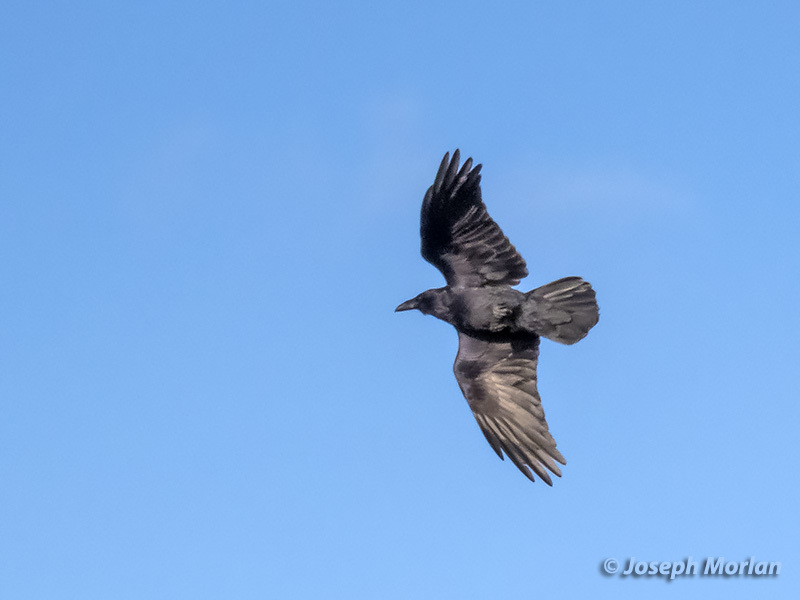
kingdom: Animalia
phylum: Chordata
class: Aves
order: Passeriformes
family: Corvidae
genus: Corvus
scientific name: Corvus corax
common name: Common raven
